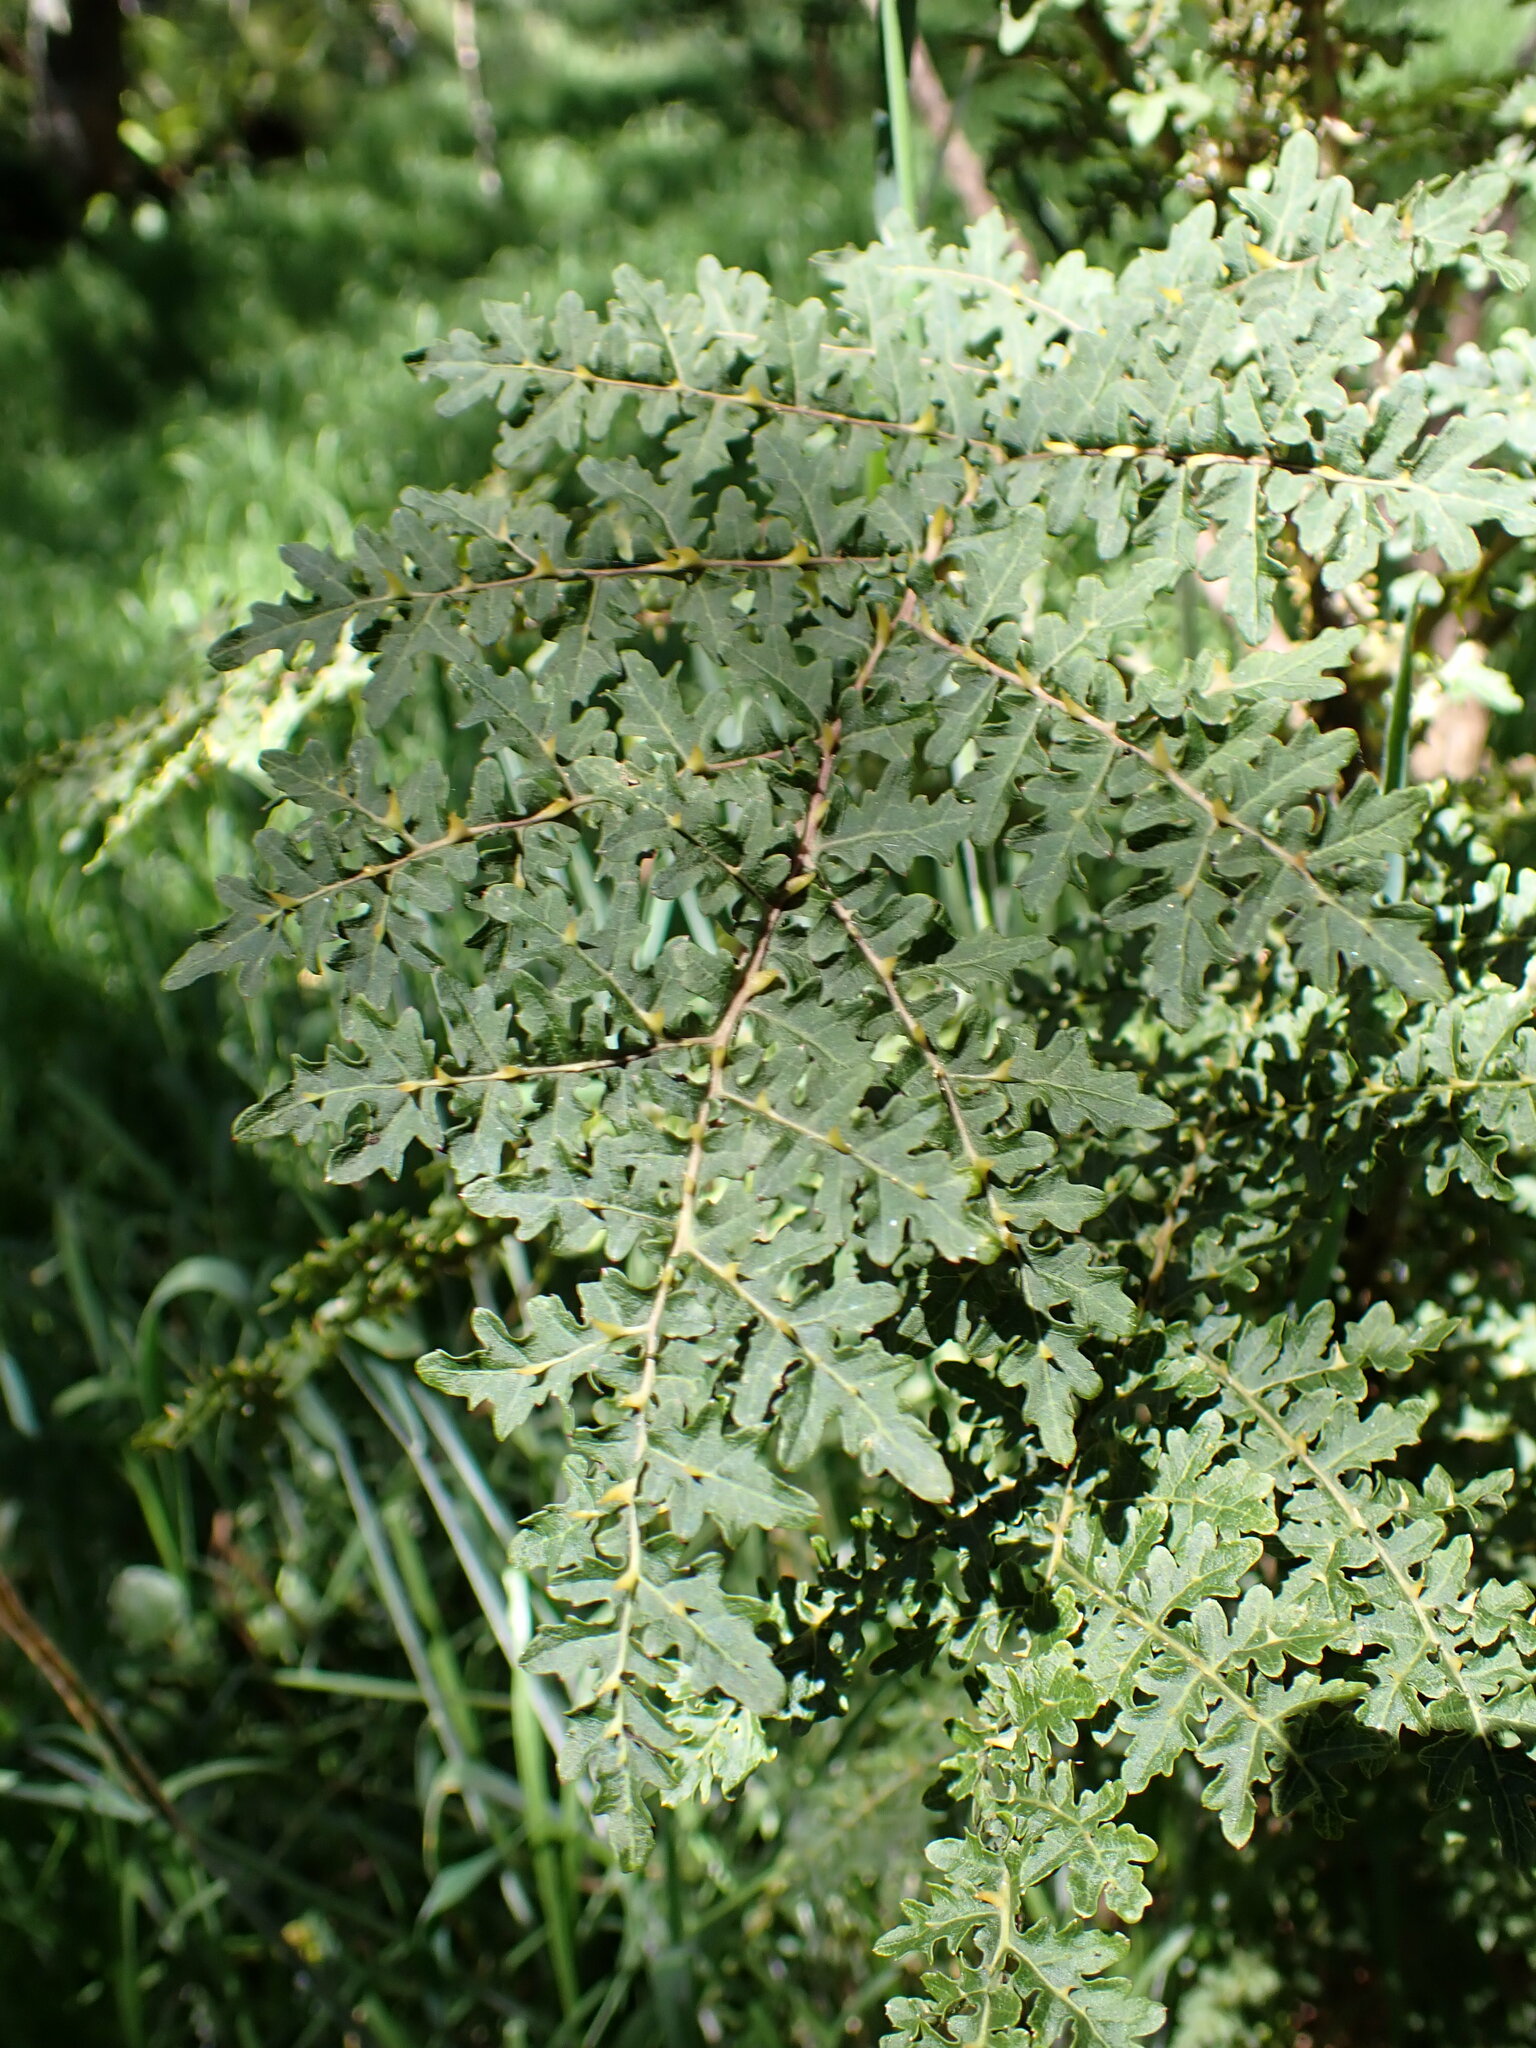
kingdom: Plantae
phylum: Tracheophyta
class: Magnoliopsida
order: Asterales
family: Campanulaceae
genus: Cyanea
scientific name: Cyanea shipmanii
